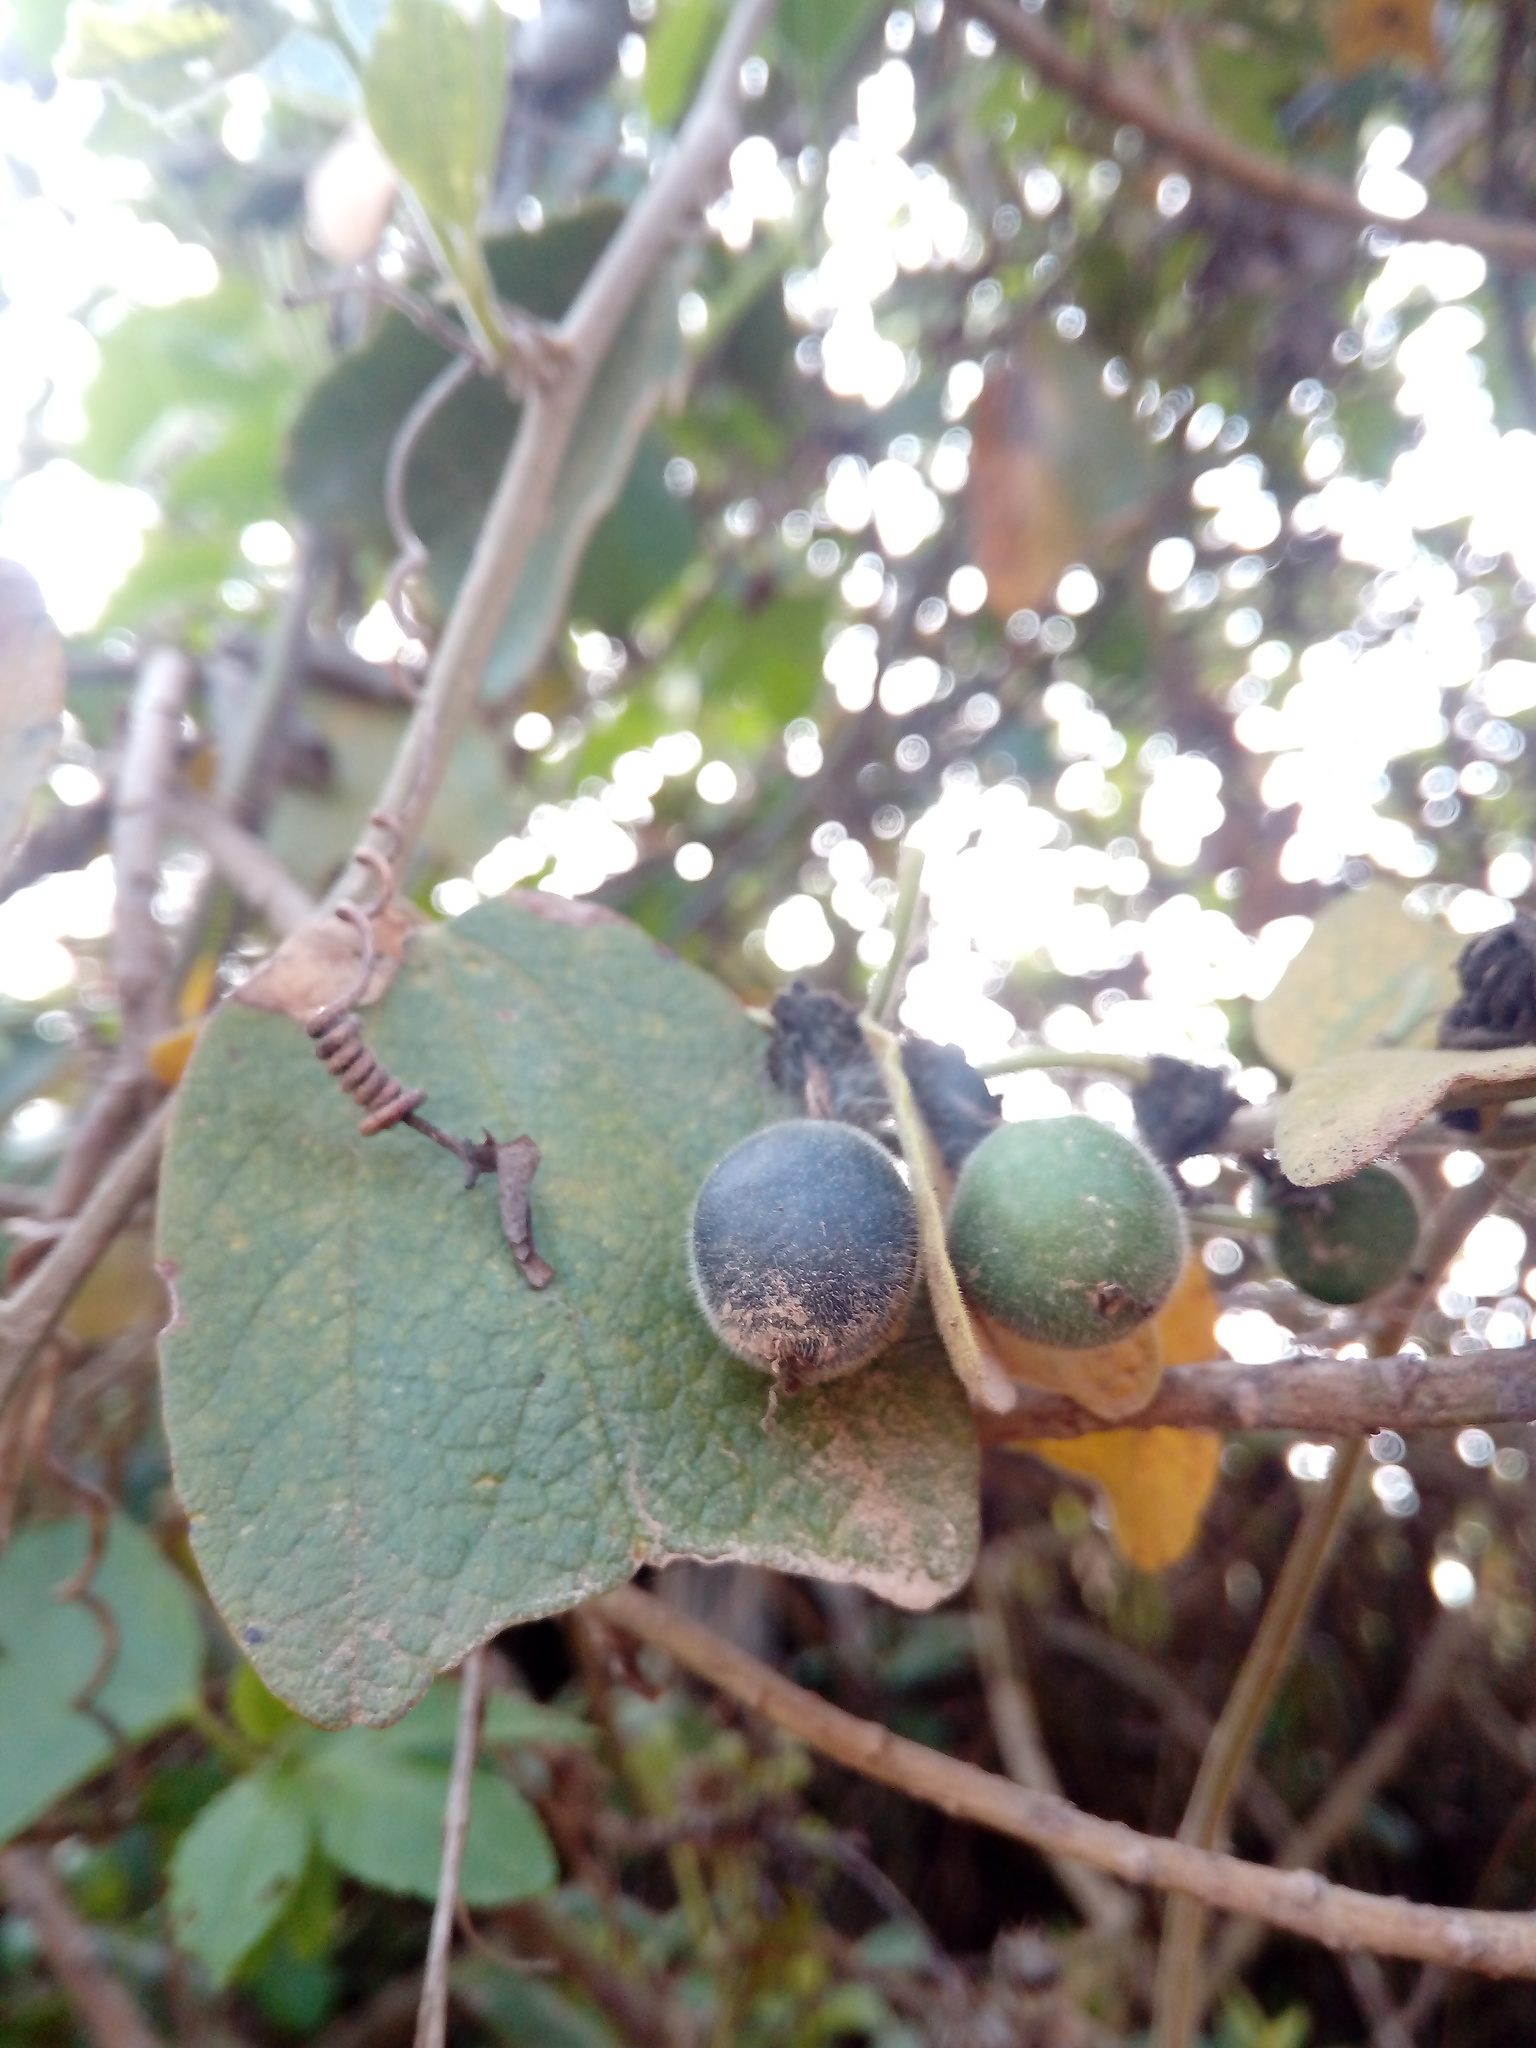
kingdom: Plantae
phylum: Tracheophyta
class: Magnoliopsida
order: Malpighiales
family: Passifloraceae
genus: Passiflora
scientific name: Passiflora bogotensis
